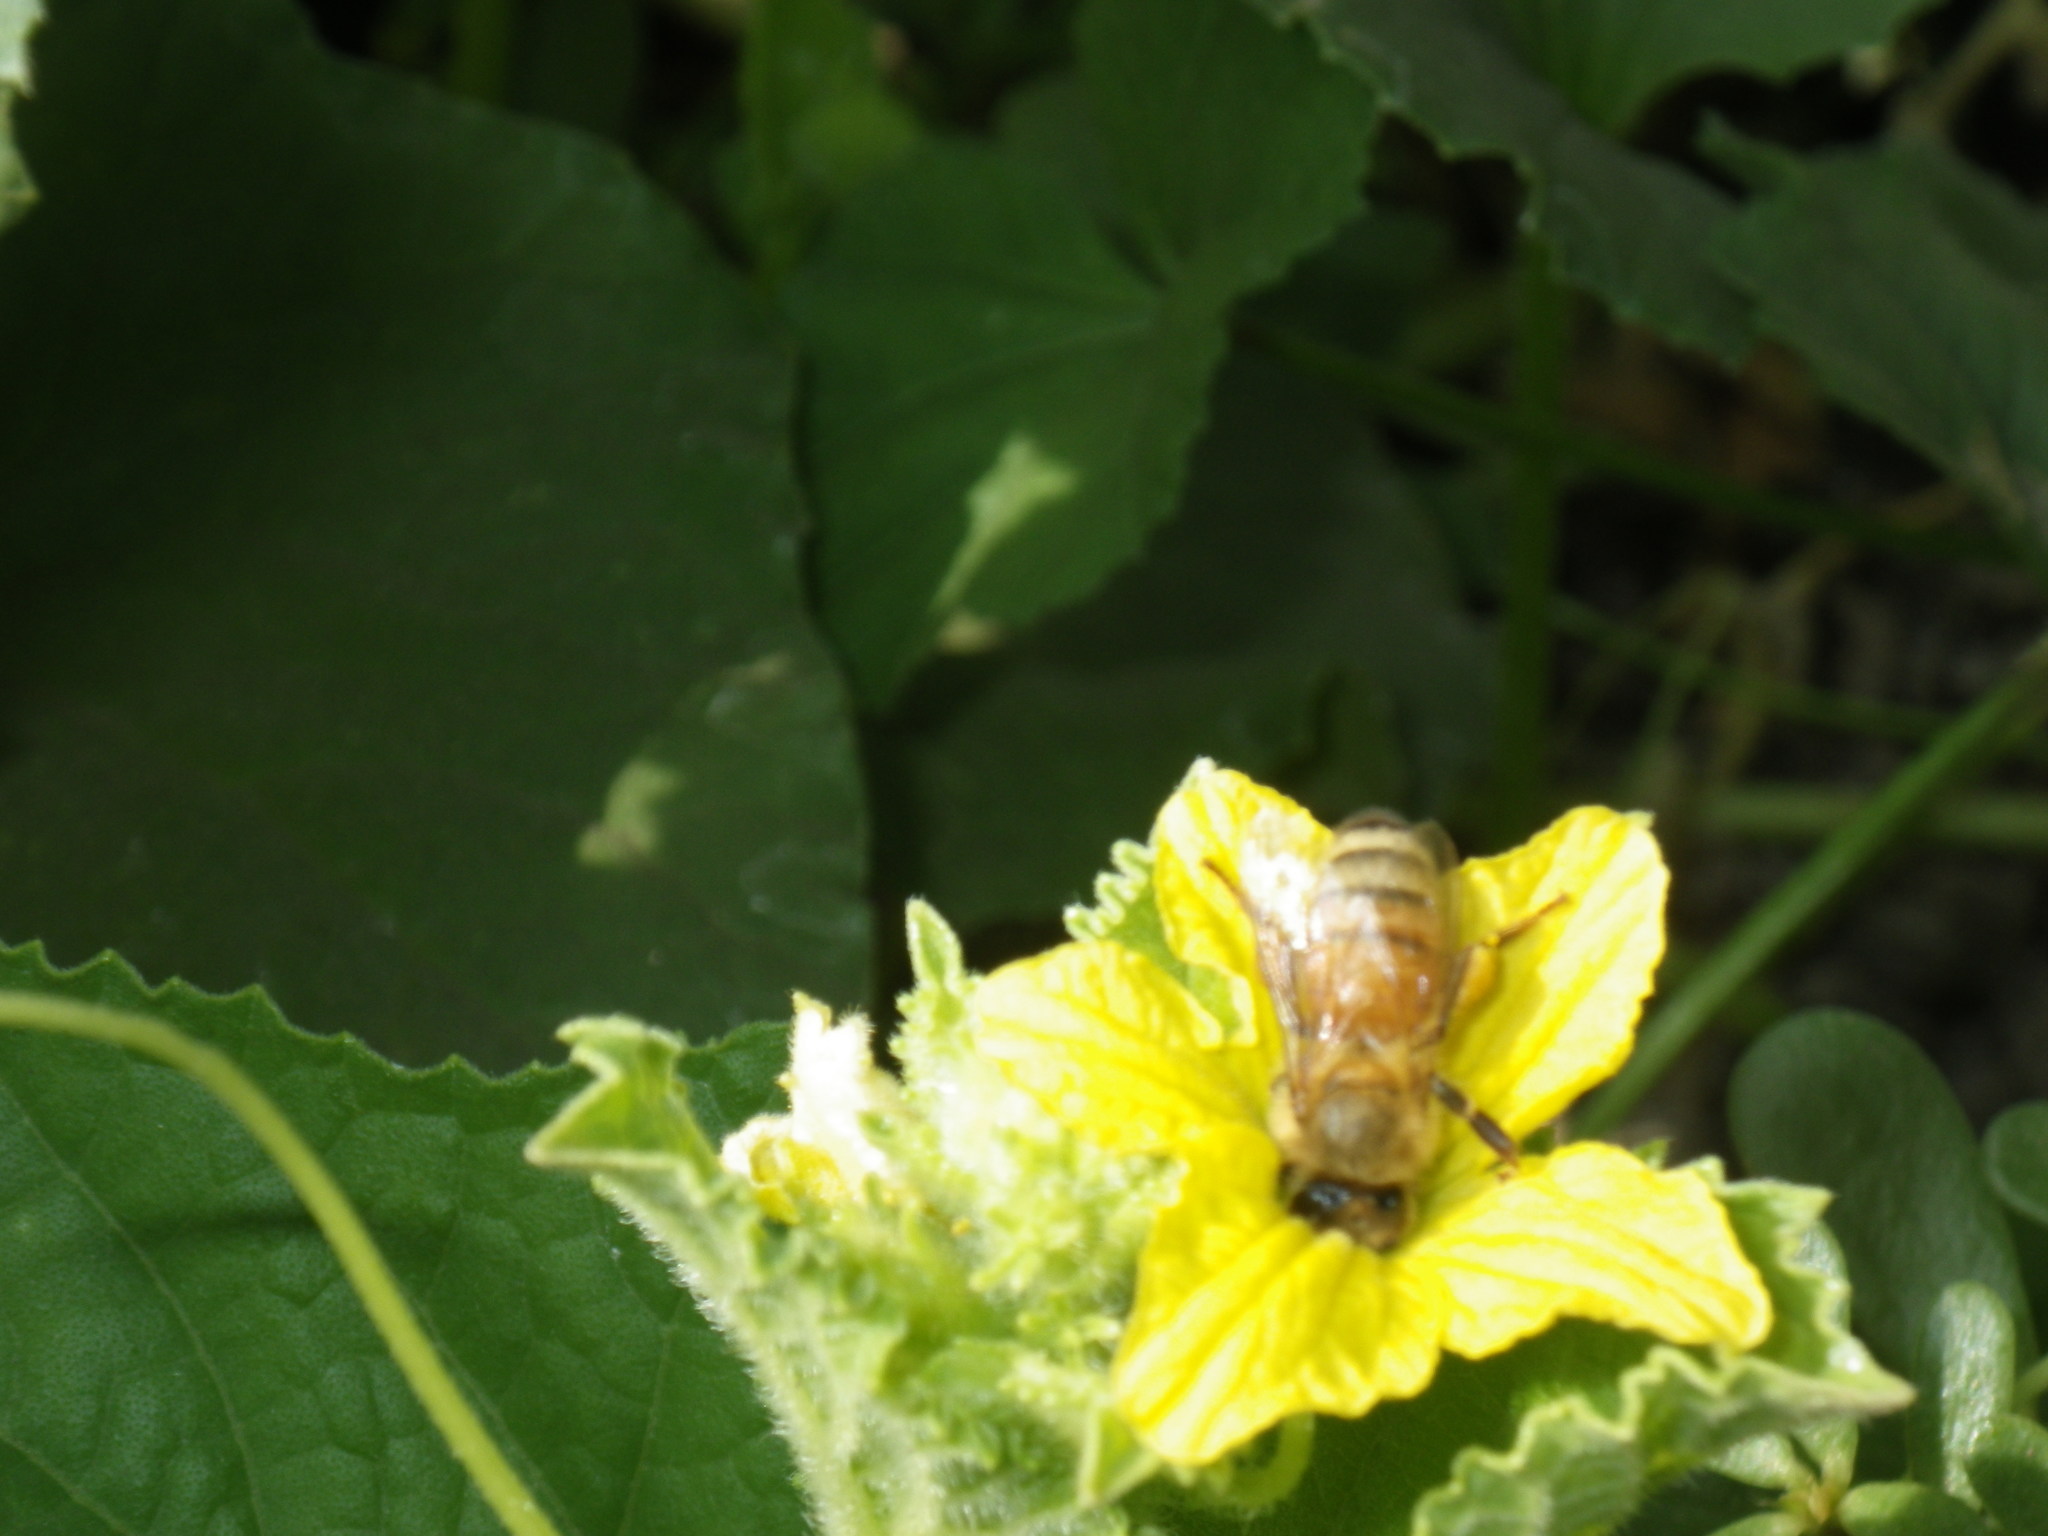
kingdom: Animalia
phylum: Arthropoda
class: Insecta
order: Hymenoptera
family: Apidae
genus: Apis
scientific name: Apis mellifera
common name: Honey bee
